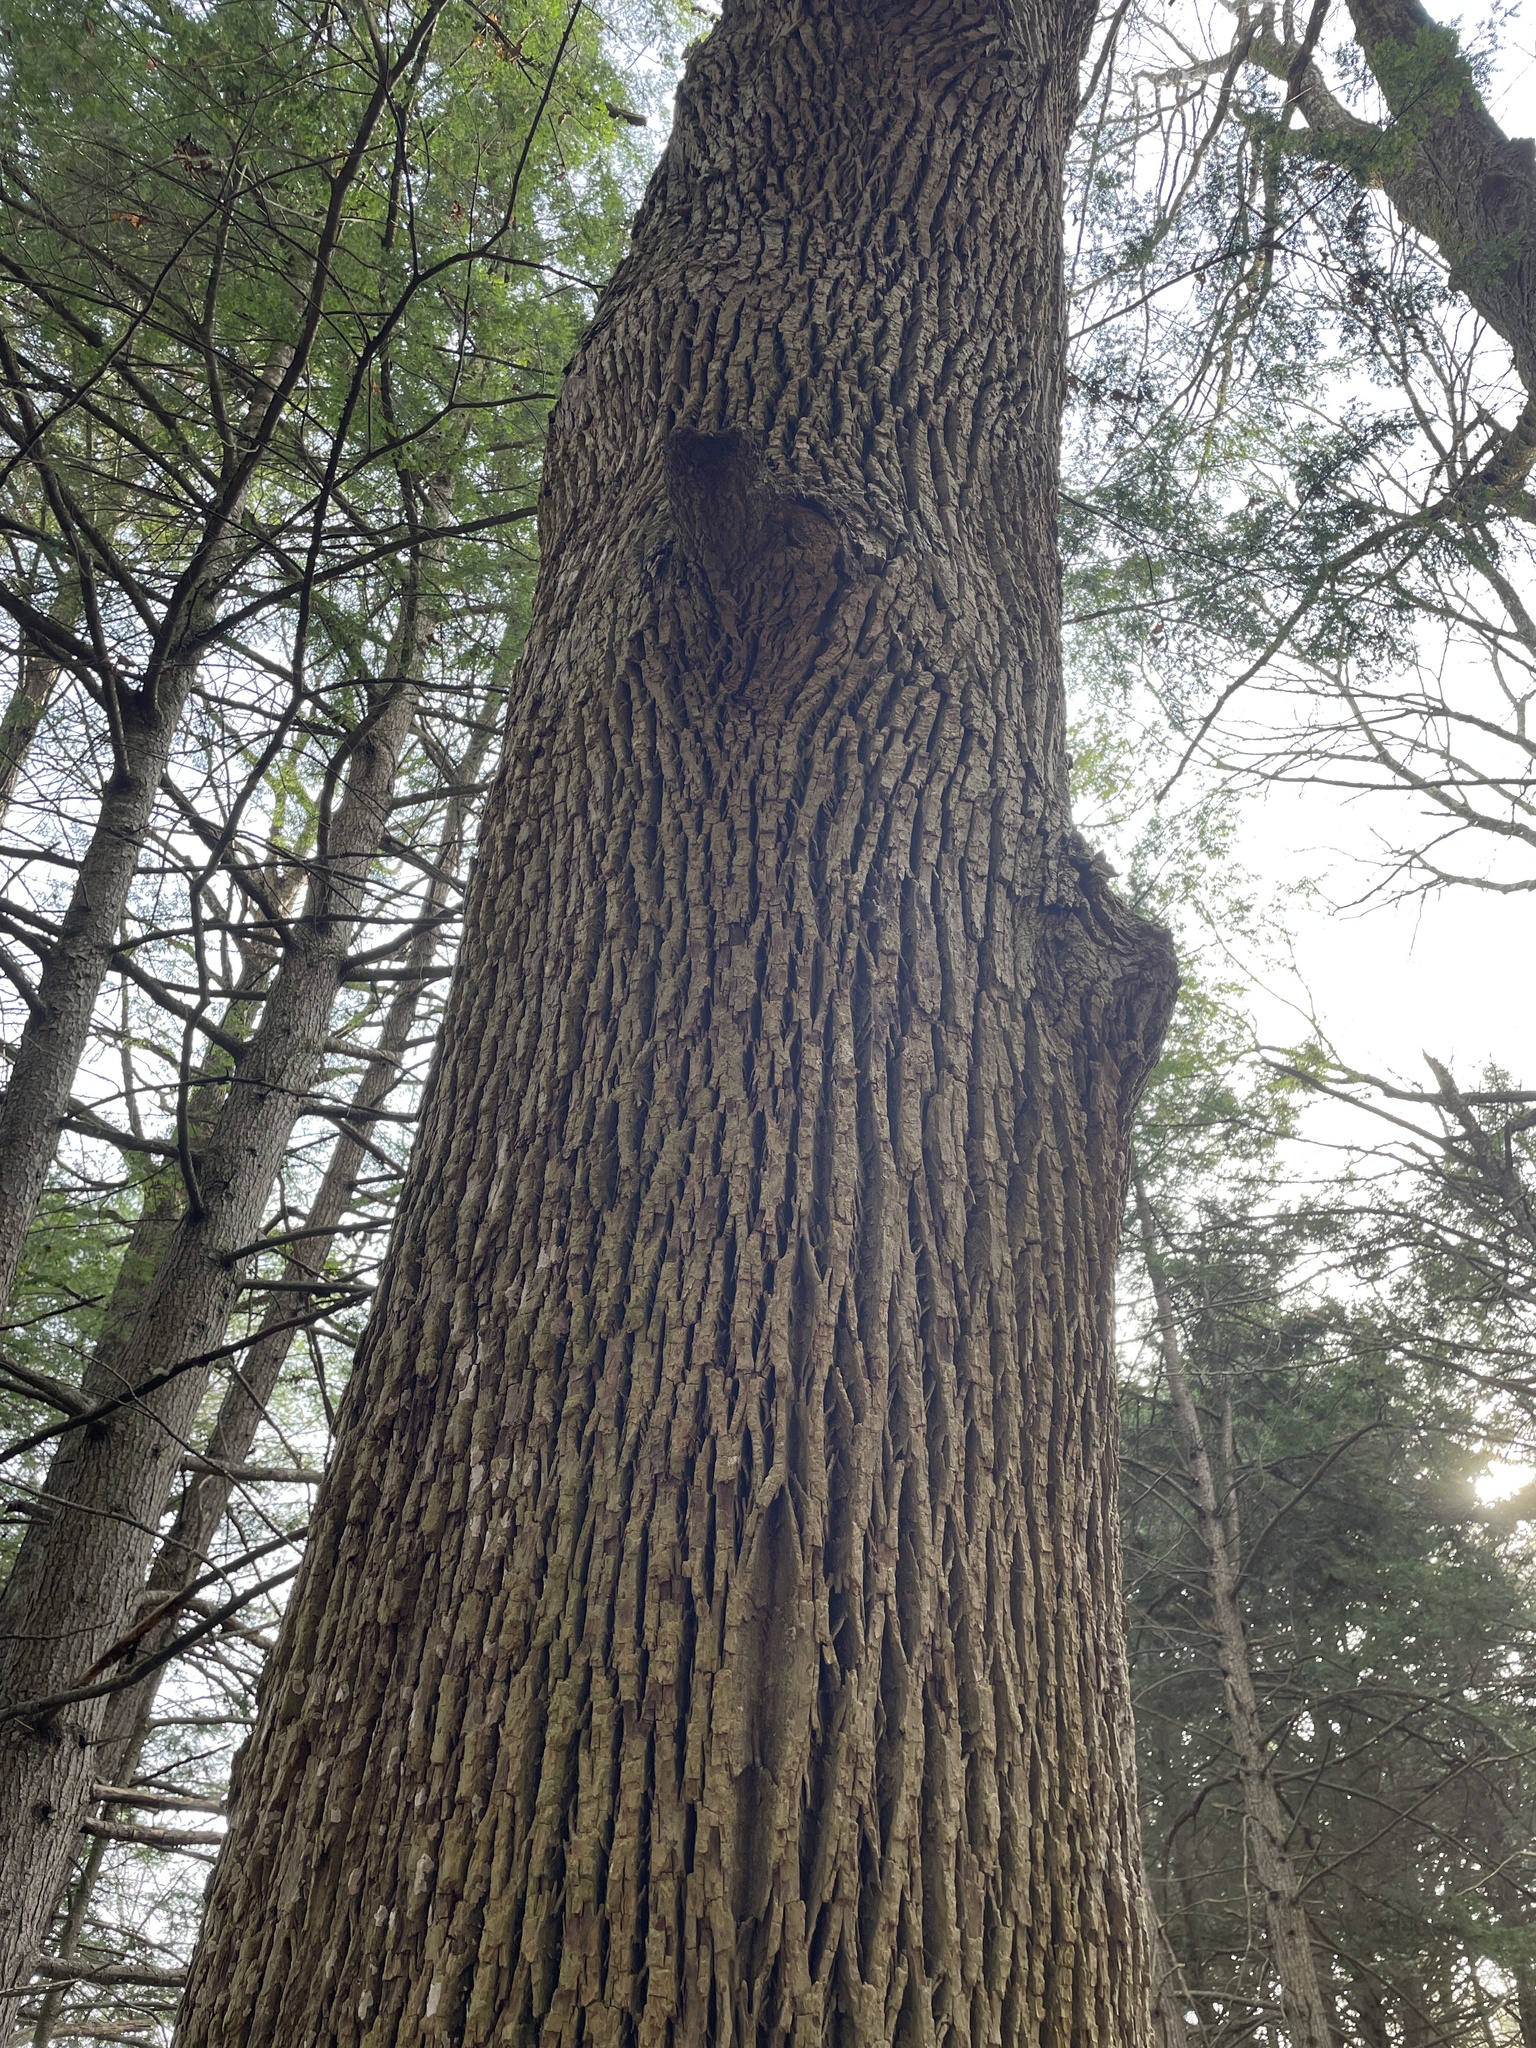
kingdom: Plantae
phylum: Tracheophyta
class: Magnoliopsida
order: Lamiales
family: Oleaceae
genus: Fraxinus
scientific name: Fraxinus americana
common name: White ash
